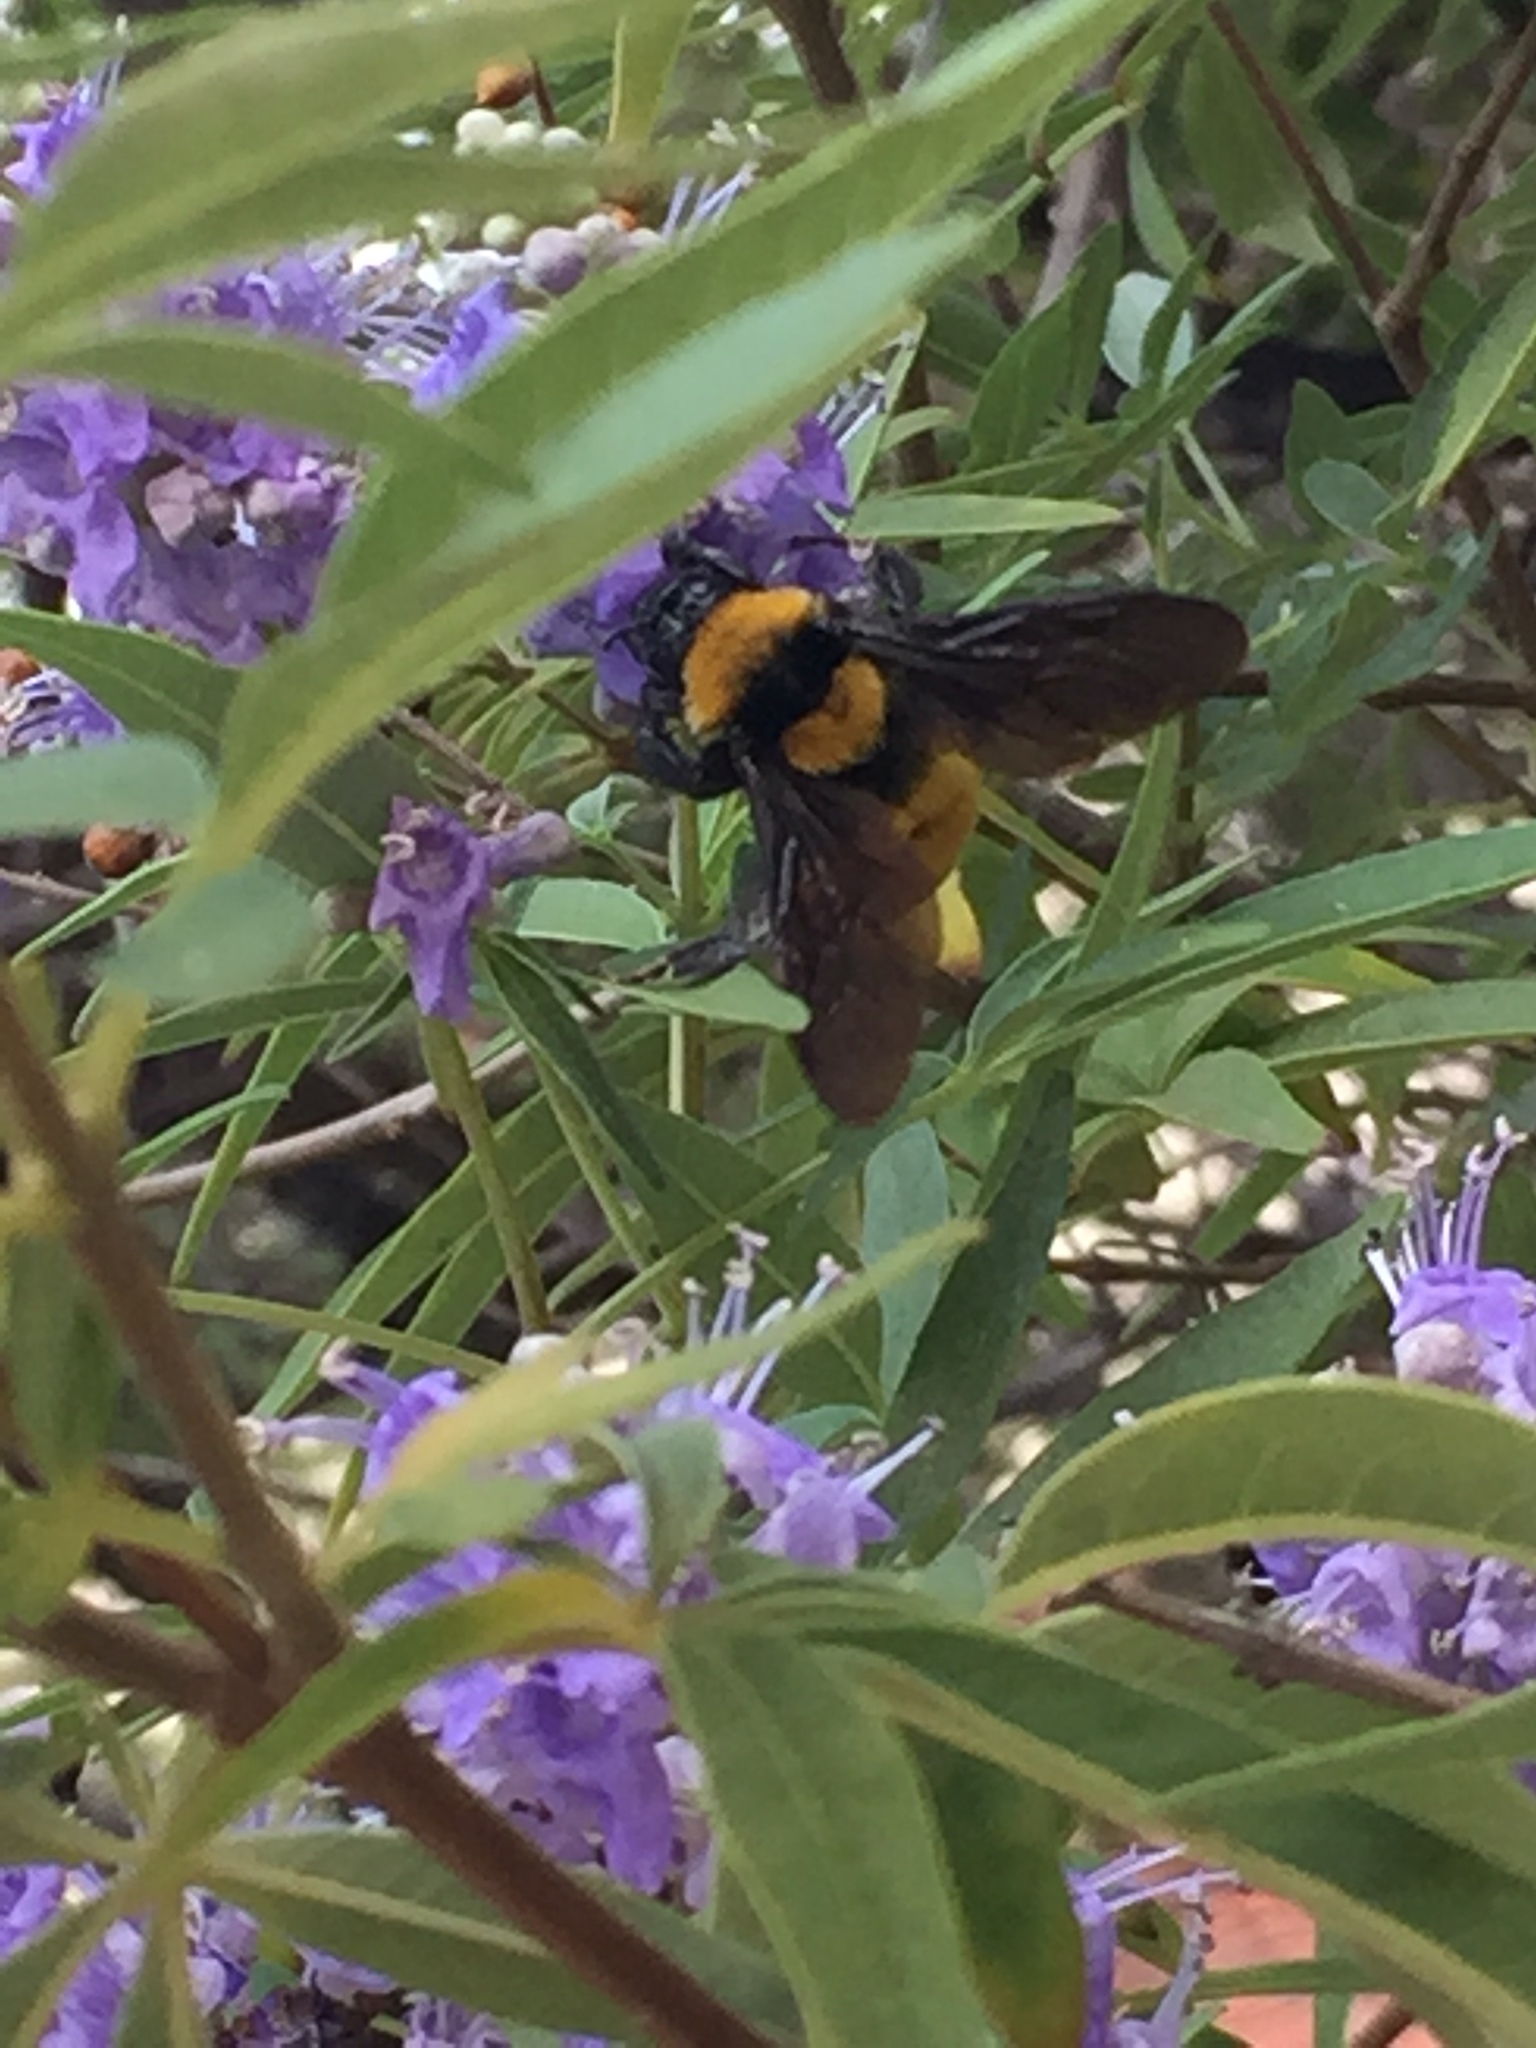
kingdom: Animalia
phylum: Arthropoda
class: Insecta
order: Hymenoptera
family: Apidae
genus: Bombus
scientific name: Bombus sonorus
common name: Sonoran bumble bee
